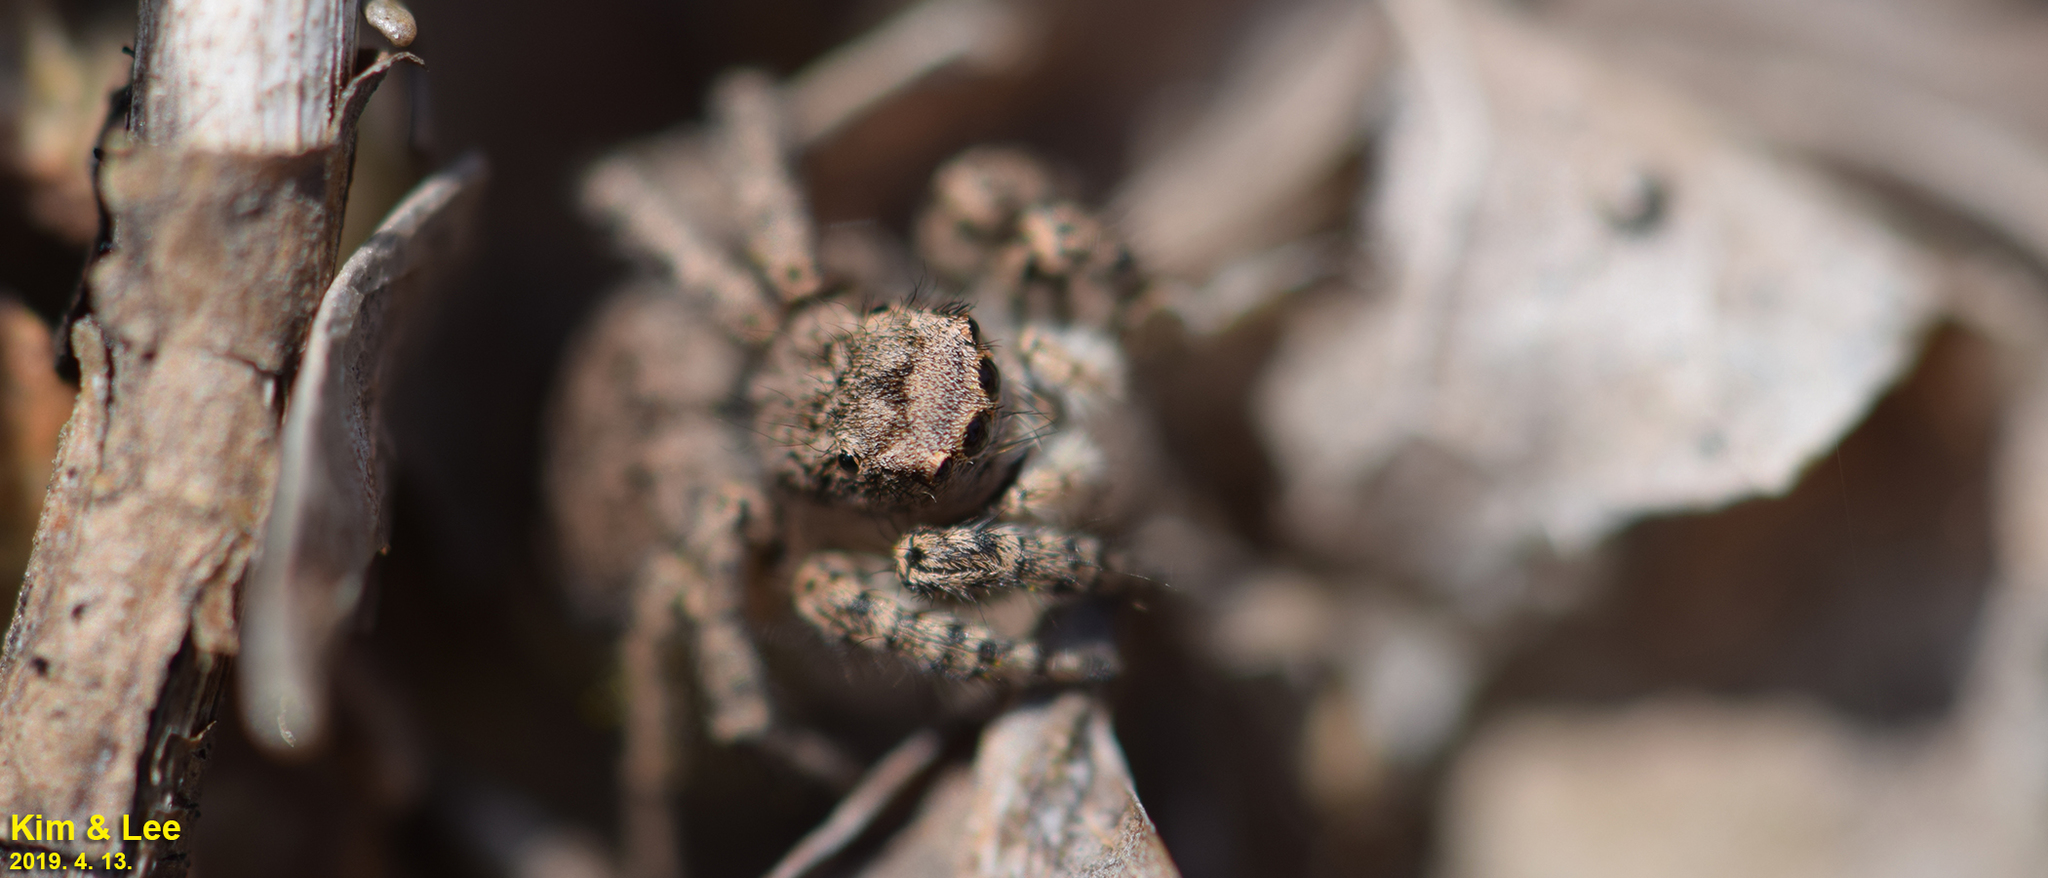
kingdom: Animalia
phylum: Arthropoda
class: Arachnida
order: Araneae
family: Salticidae
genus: Asianellus
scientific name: Asianellus festivus
